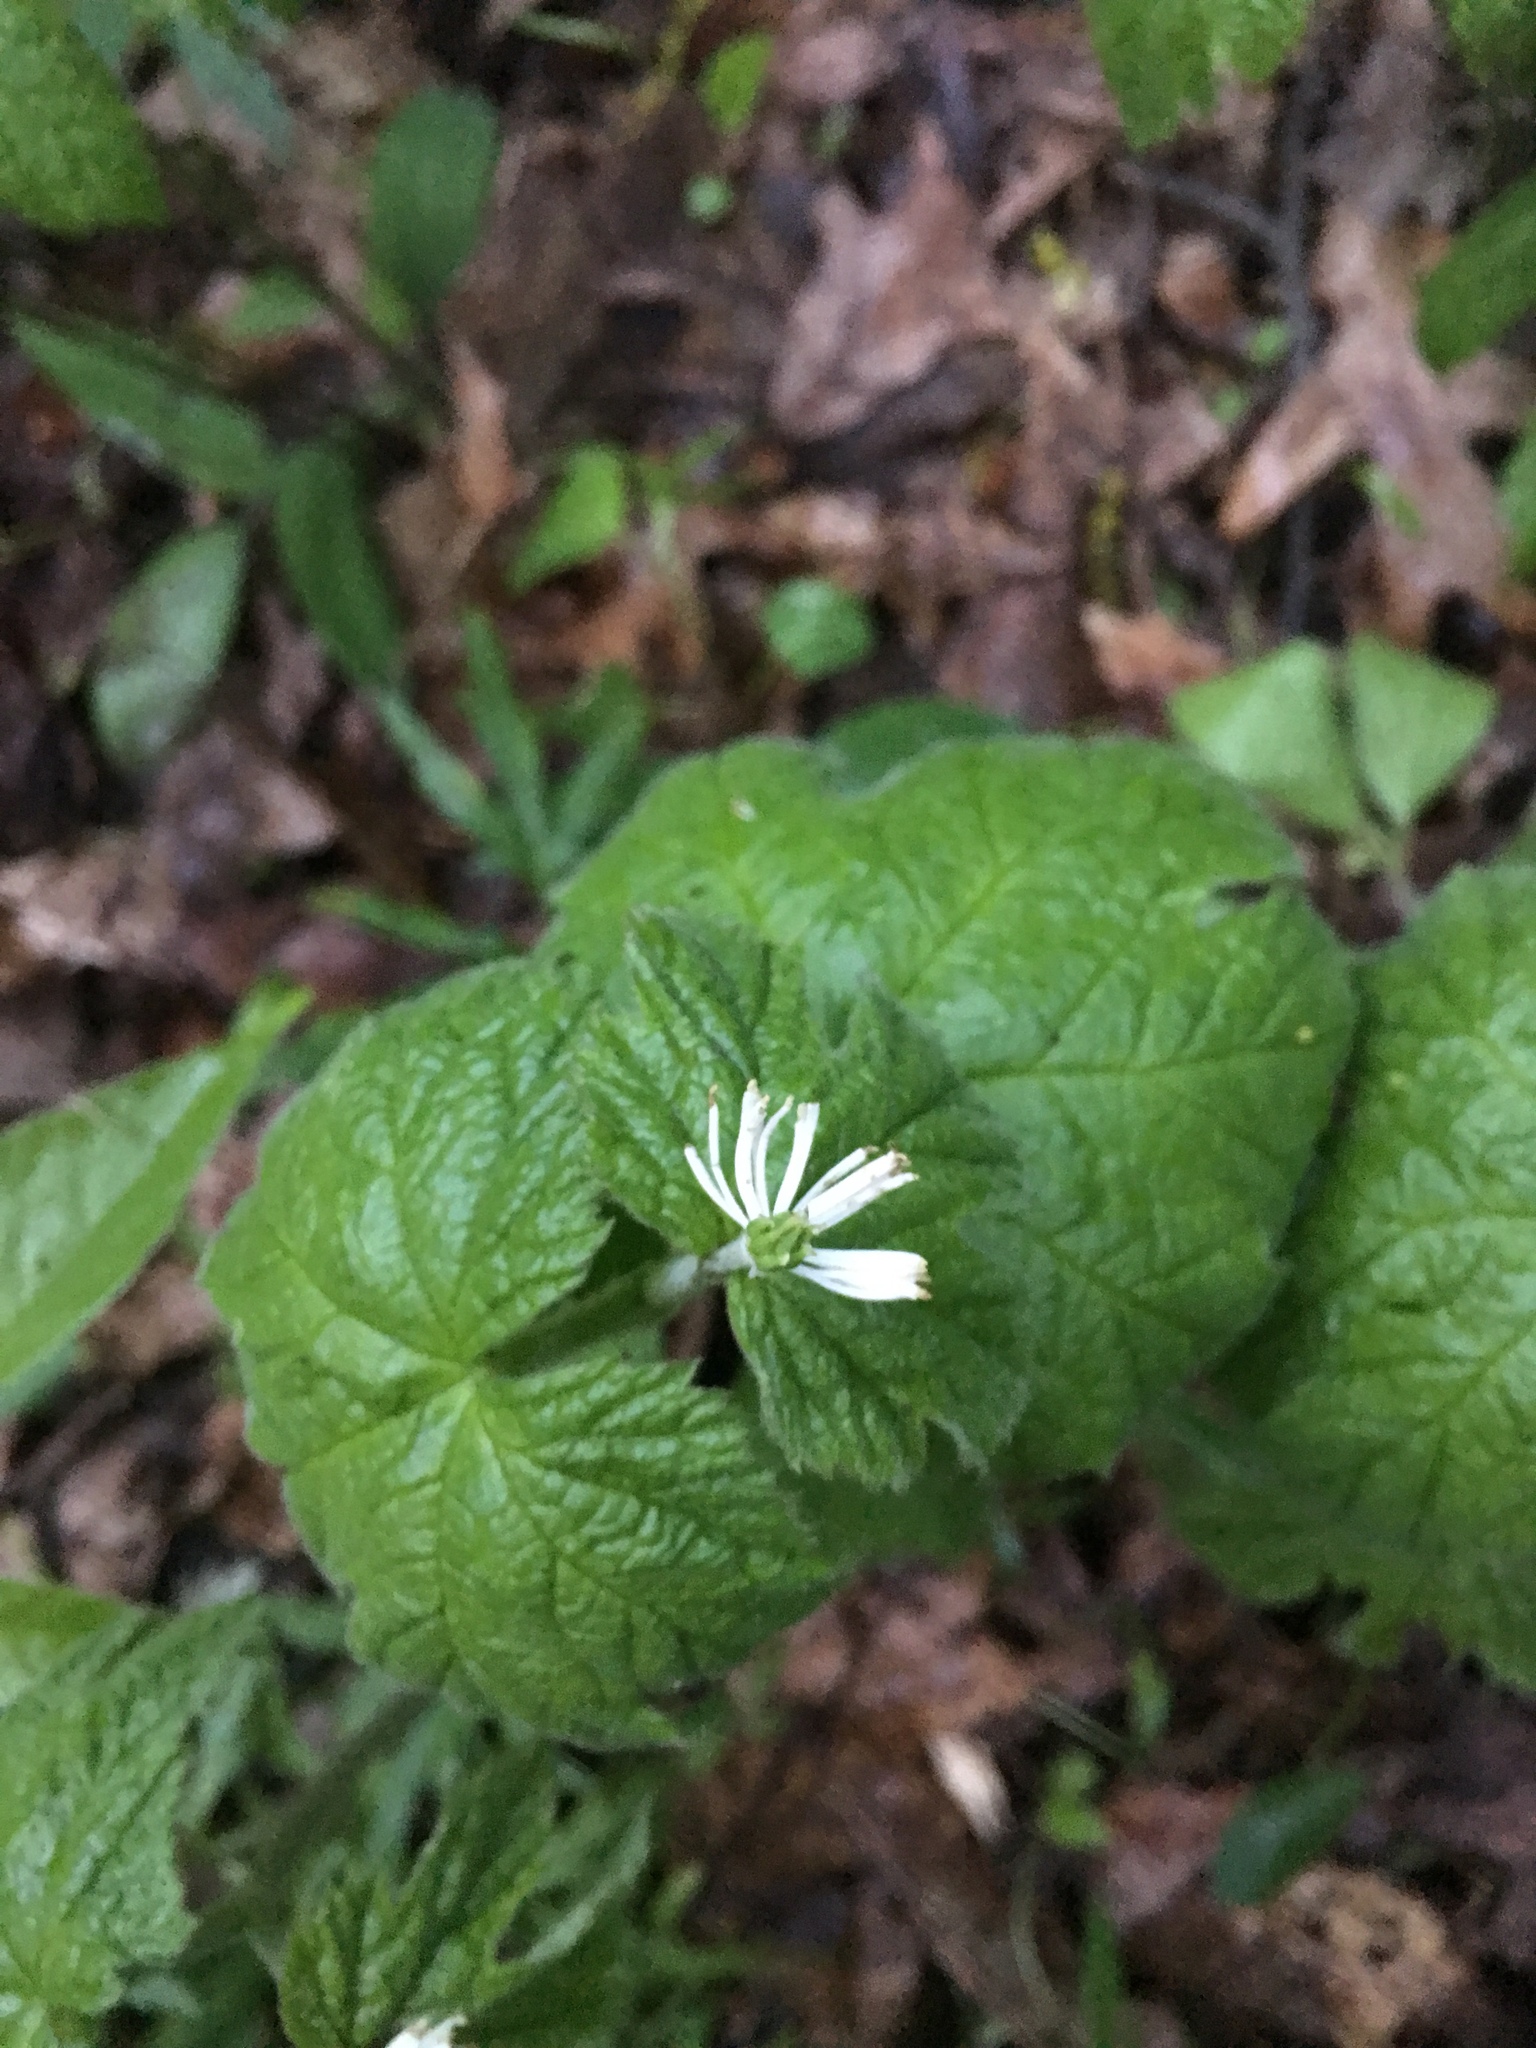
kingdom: Plantae
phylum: Tracheophyta
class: Magnoliopsida
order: Ranunculales
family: Ranunculaceae
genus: Hydrastis
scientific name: Hydrastis canadensis
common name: Goldenseal
